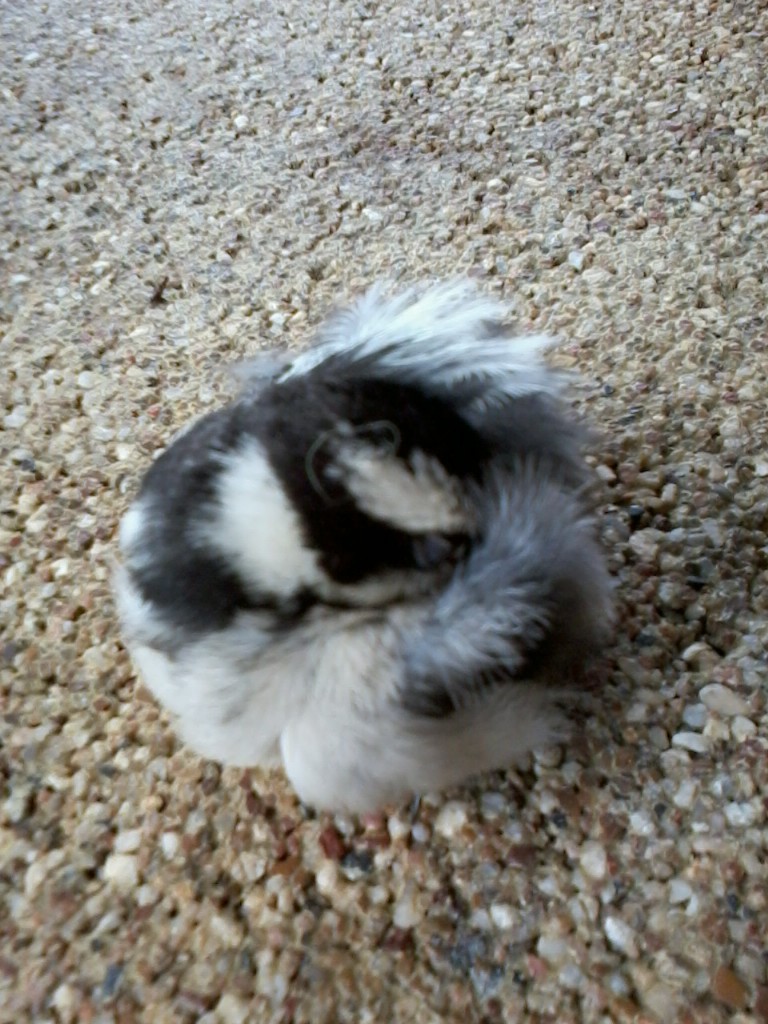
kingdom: Animalia
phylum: Chordata
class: Aves
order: Piciformes
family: Picidae
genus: Dryobates
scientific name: Dryobates pubescens
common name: Downy woodpecker
